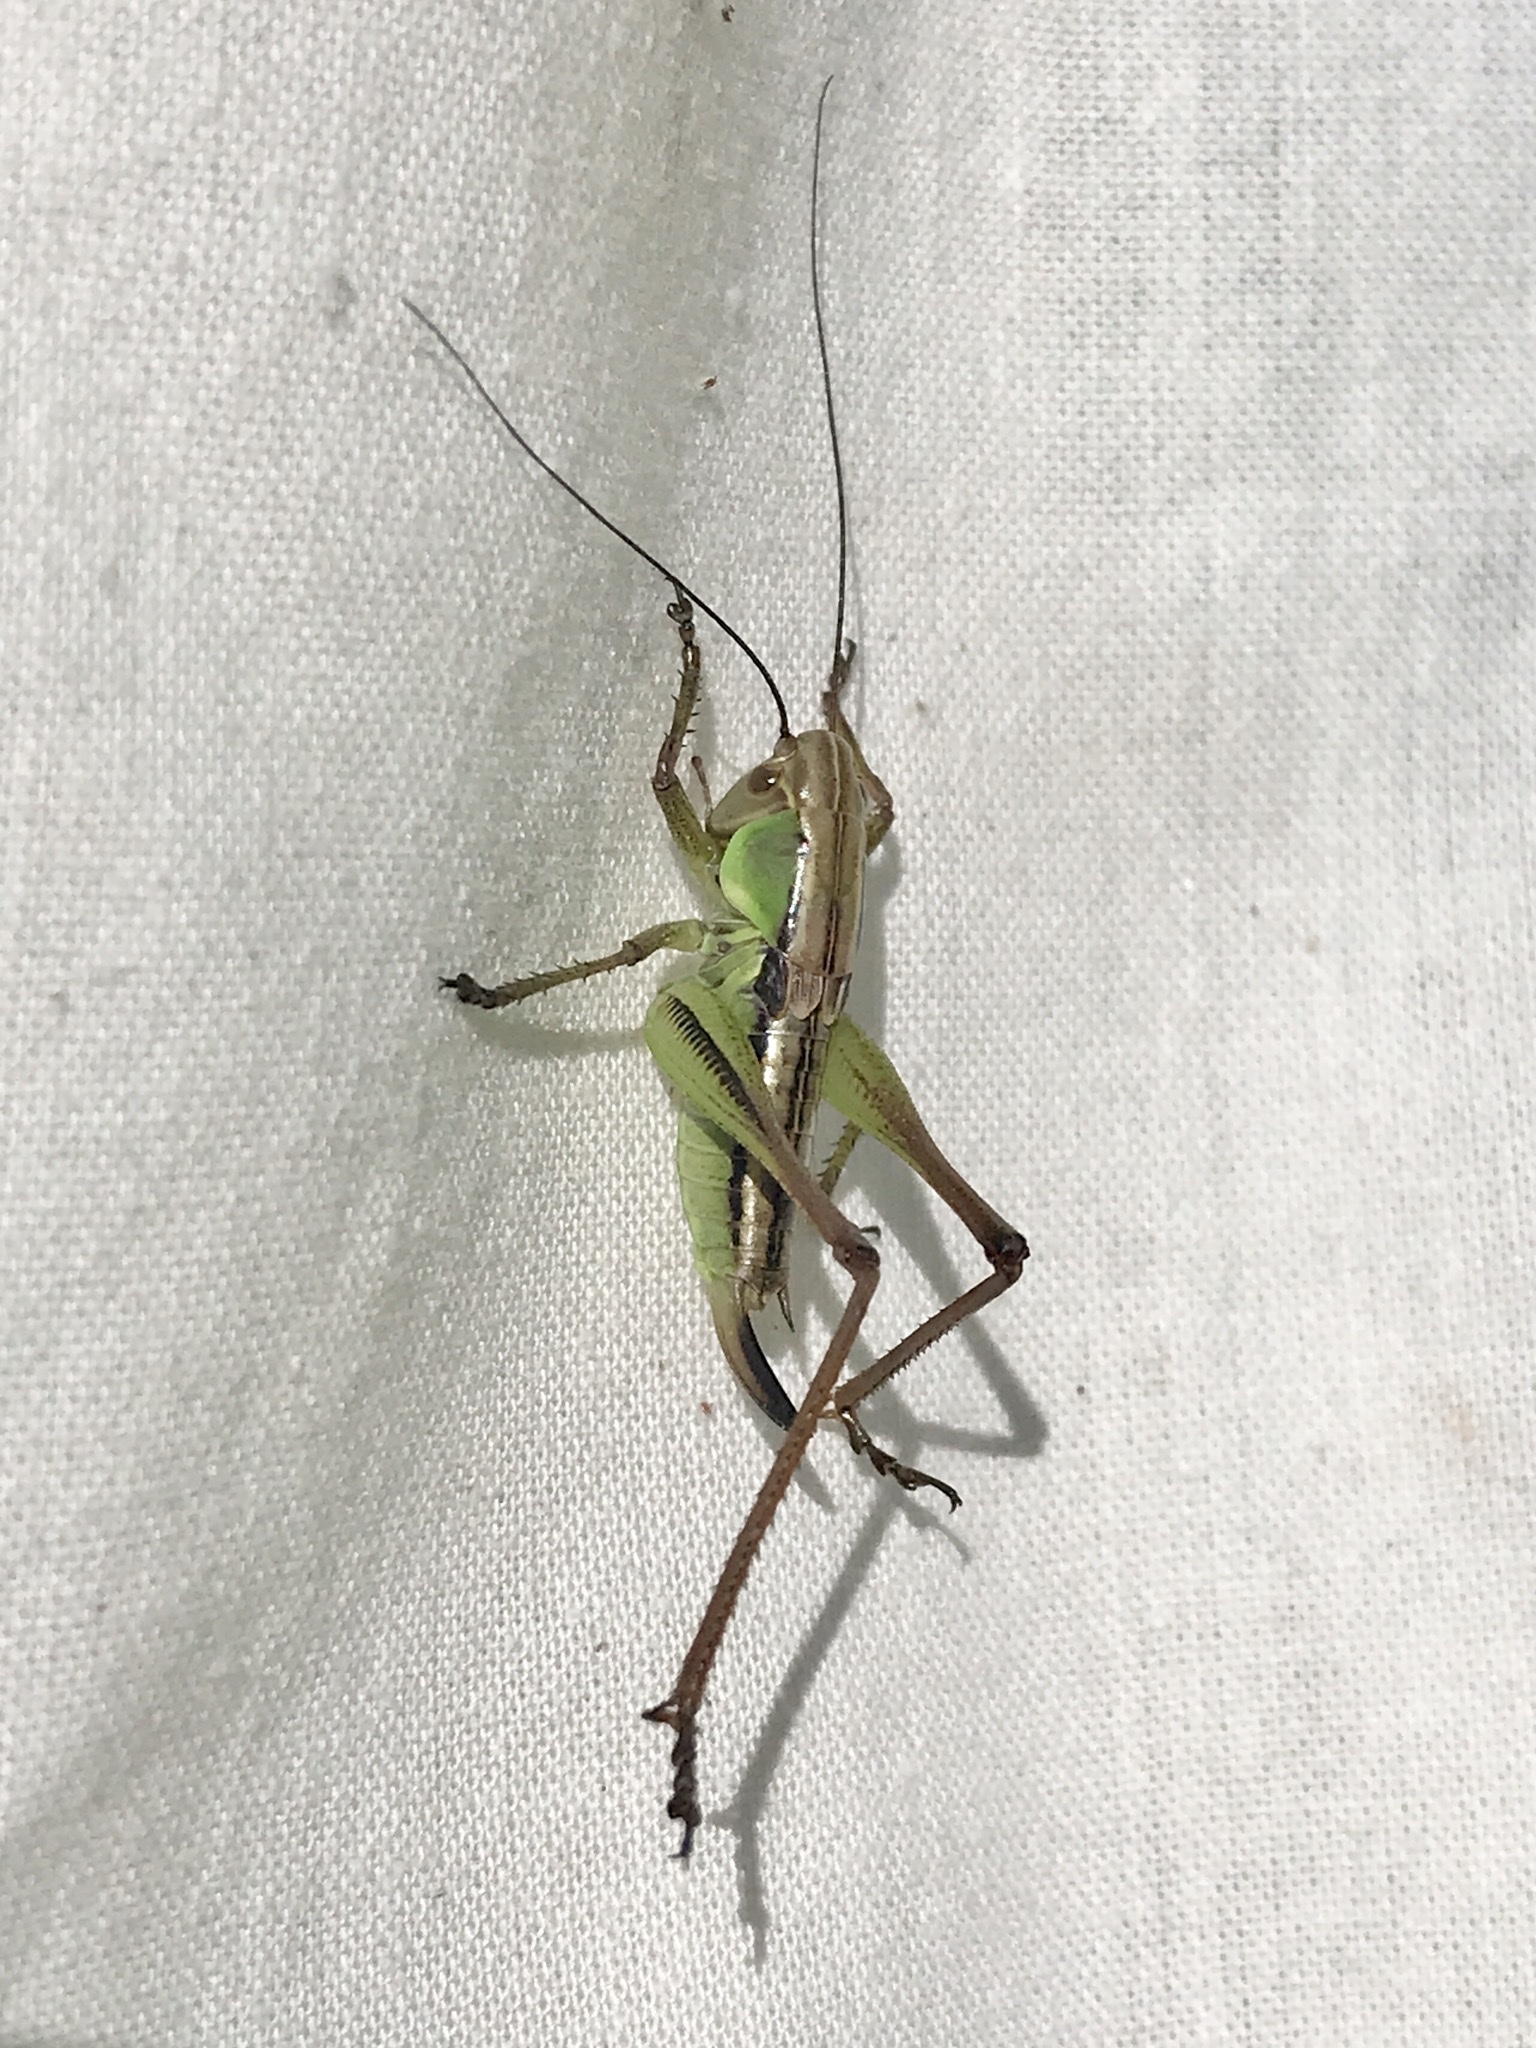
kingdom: Animalia
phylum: Arthropoda
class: Insecta
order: Orthoptera
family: Tettigoniidae
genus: Roeseliana
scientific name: Roeseliana roeselii
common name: Roesel's bush cricket
